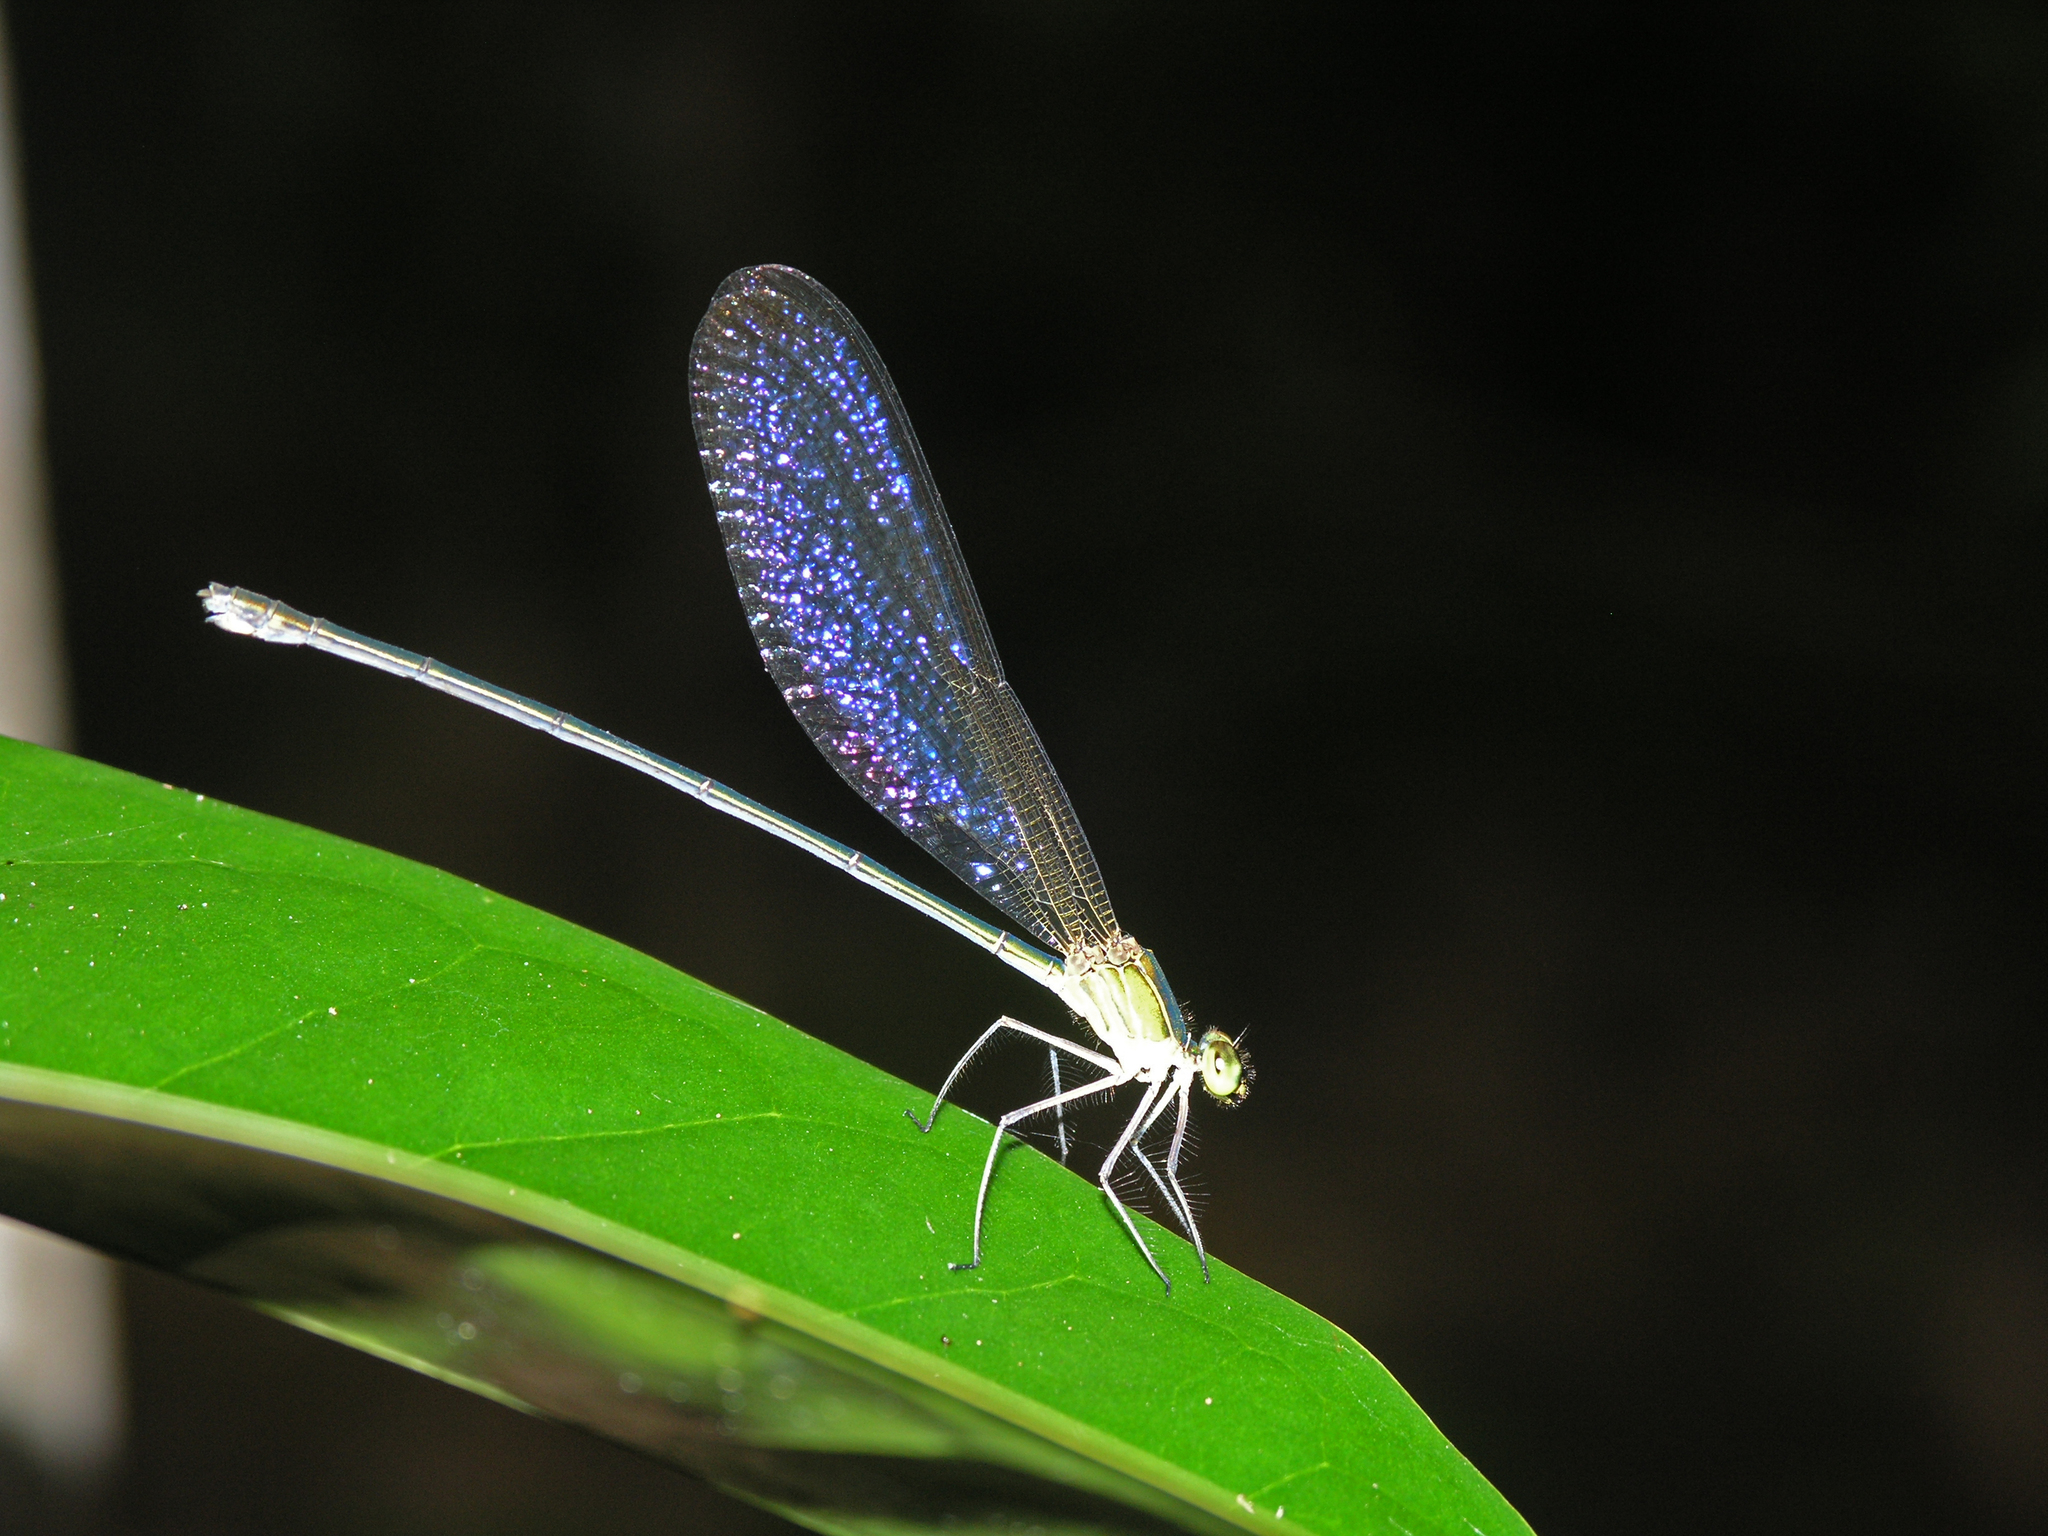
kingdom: Animalia
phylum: Arthropoda
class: Insecta
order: Odonata
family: Calopterygidae
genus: Vestalis
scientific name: Vestalis gracilis
